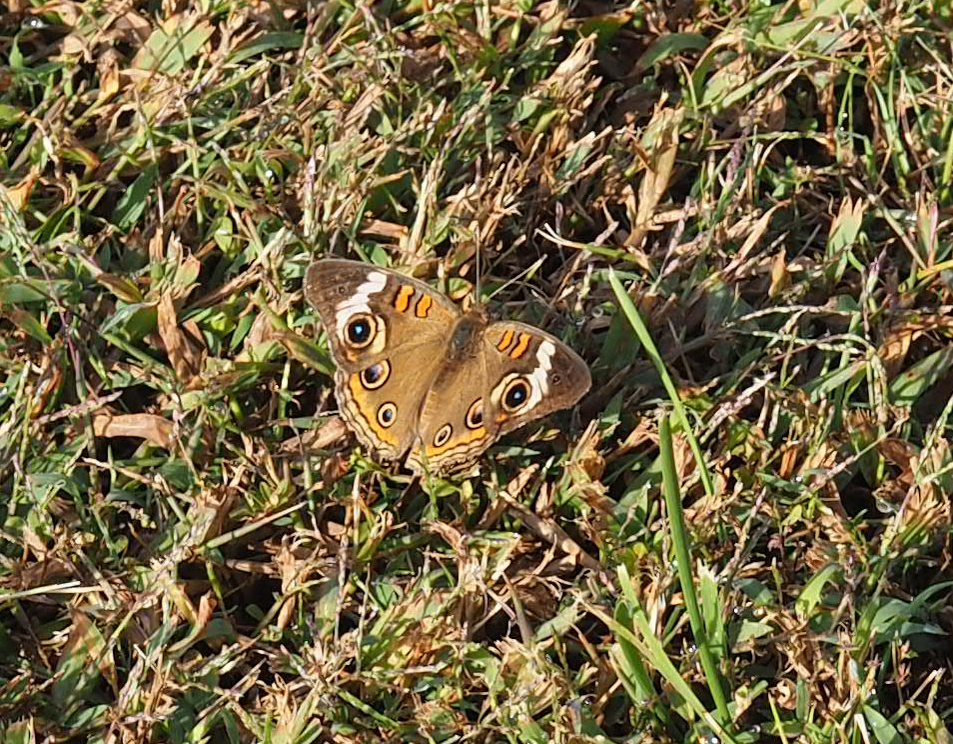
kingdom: Animalia
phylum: Arthropoda
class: Insecta
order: Lepidoptera
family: Nymphalidae
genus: Junonia
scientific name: Junonia coenia
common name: Common buckeye
